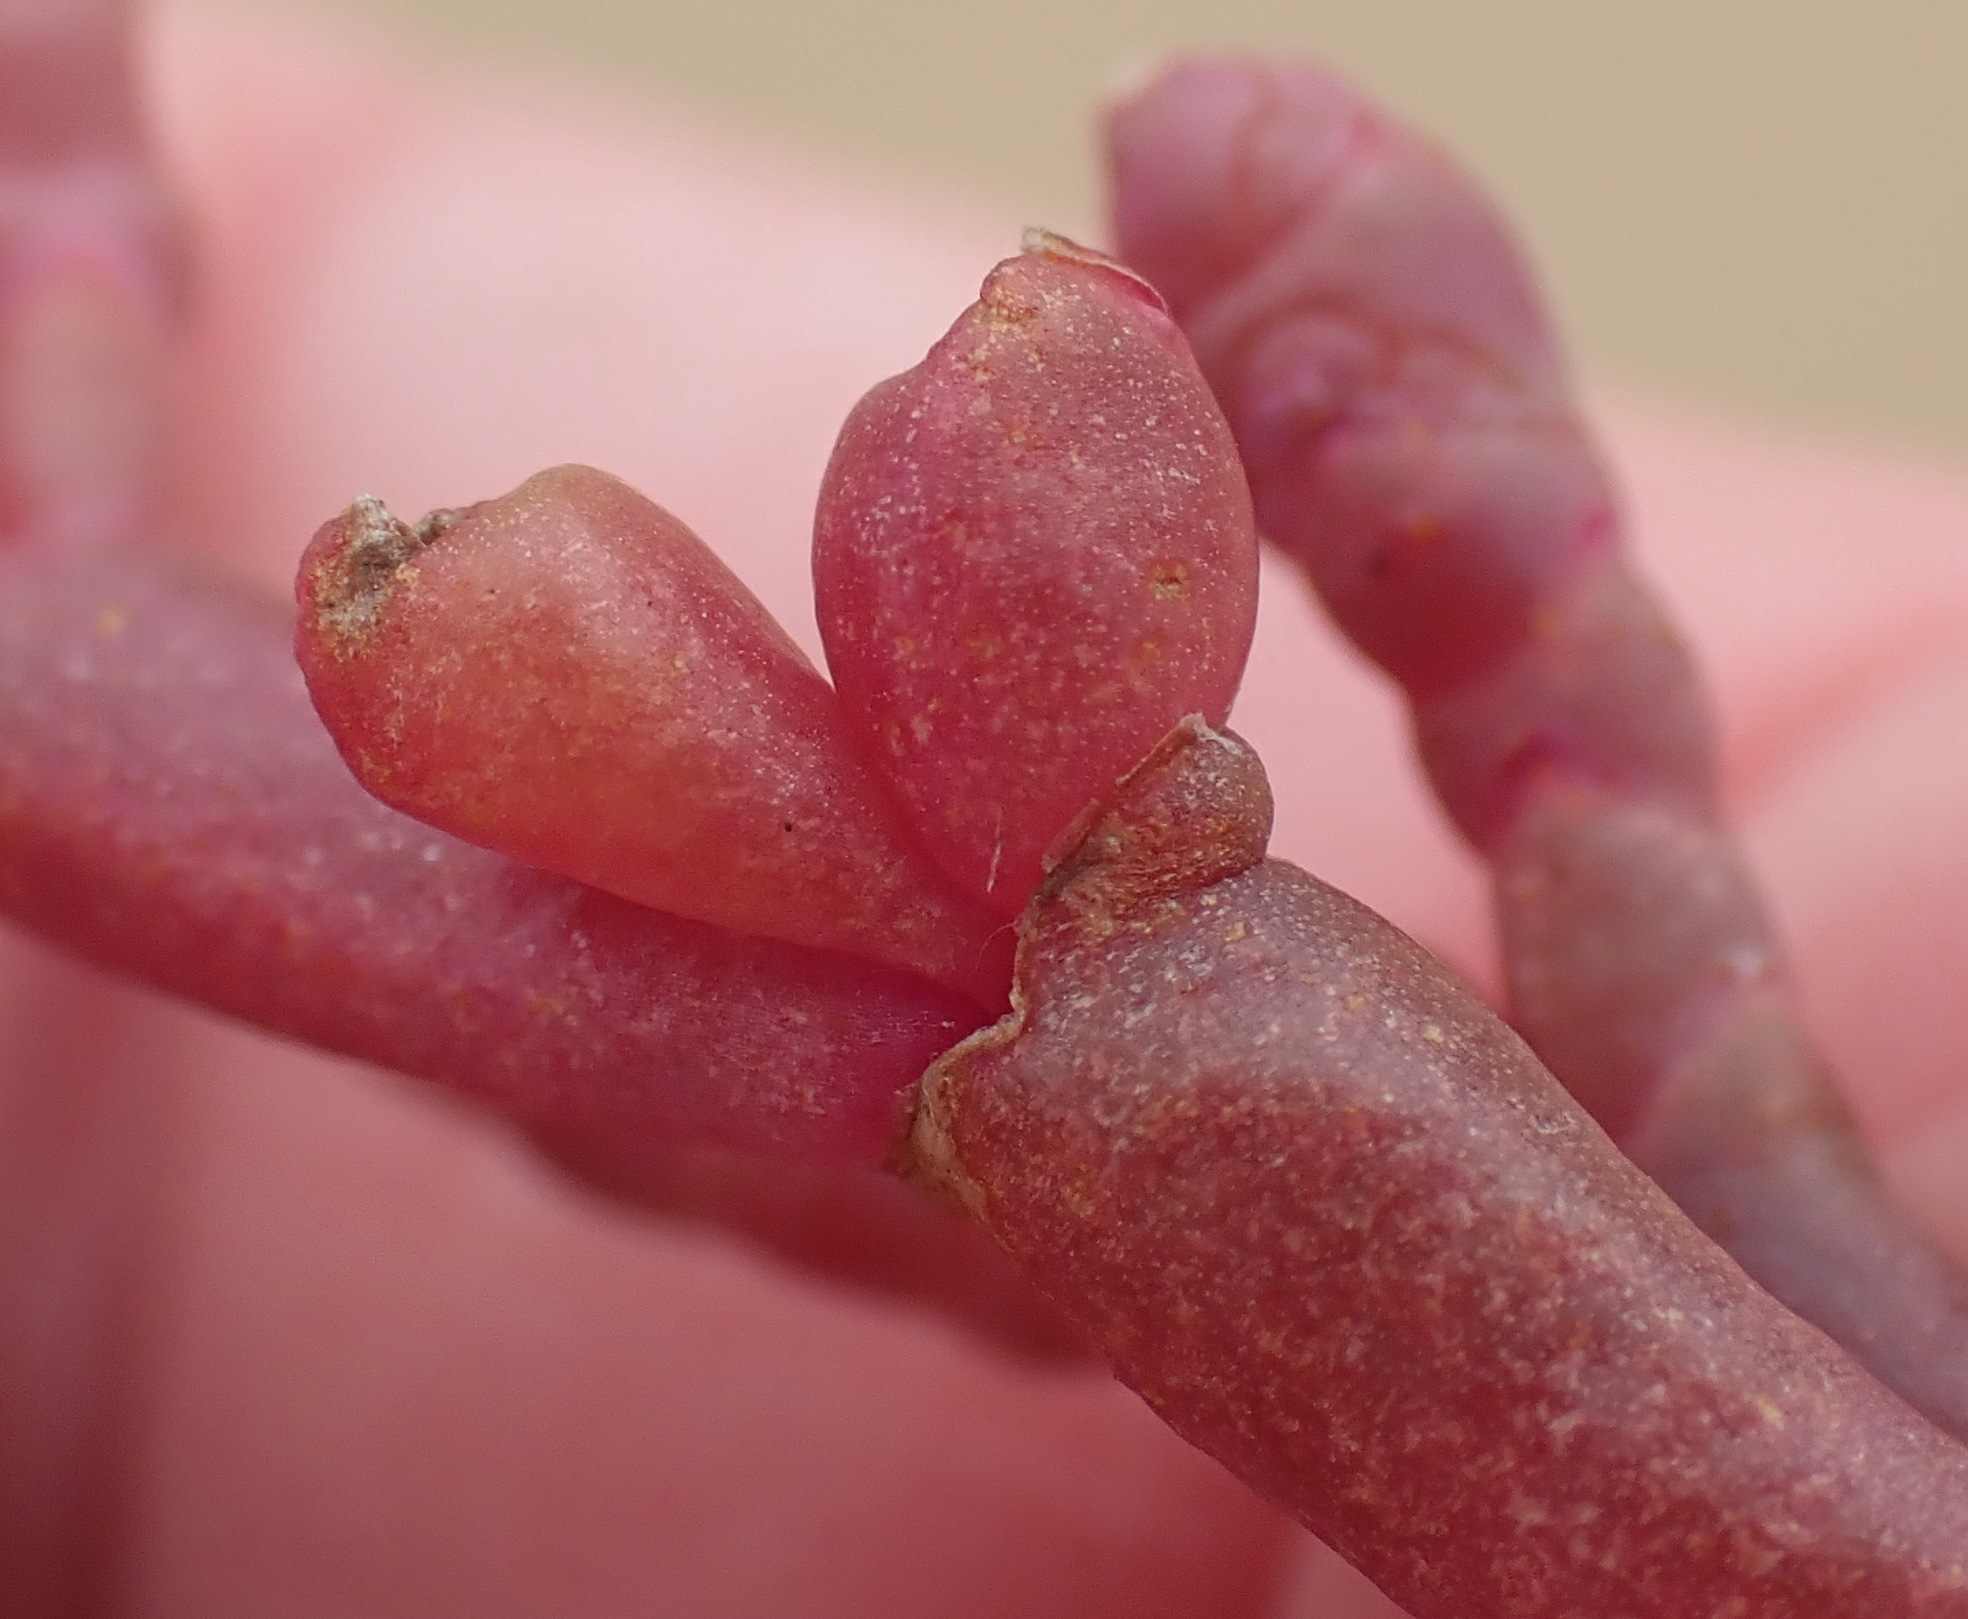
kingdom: Plantae
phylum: Tracheophyta
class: Magnoliopsida
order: Caryophyllales
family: Amaranthaceae
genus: Salicornia
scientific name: Salicornia meyeriana
